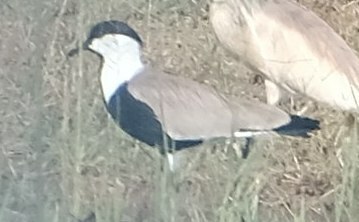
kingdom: Animalia
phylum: Chordata
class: Aves
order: Charadriiformes
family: Charadriidae
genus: Vanellus
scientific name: Vanellus spinosus
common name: Spur-winged lapwing
